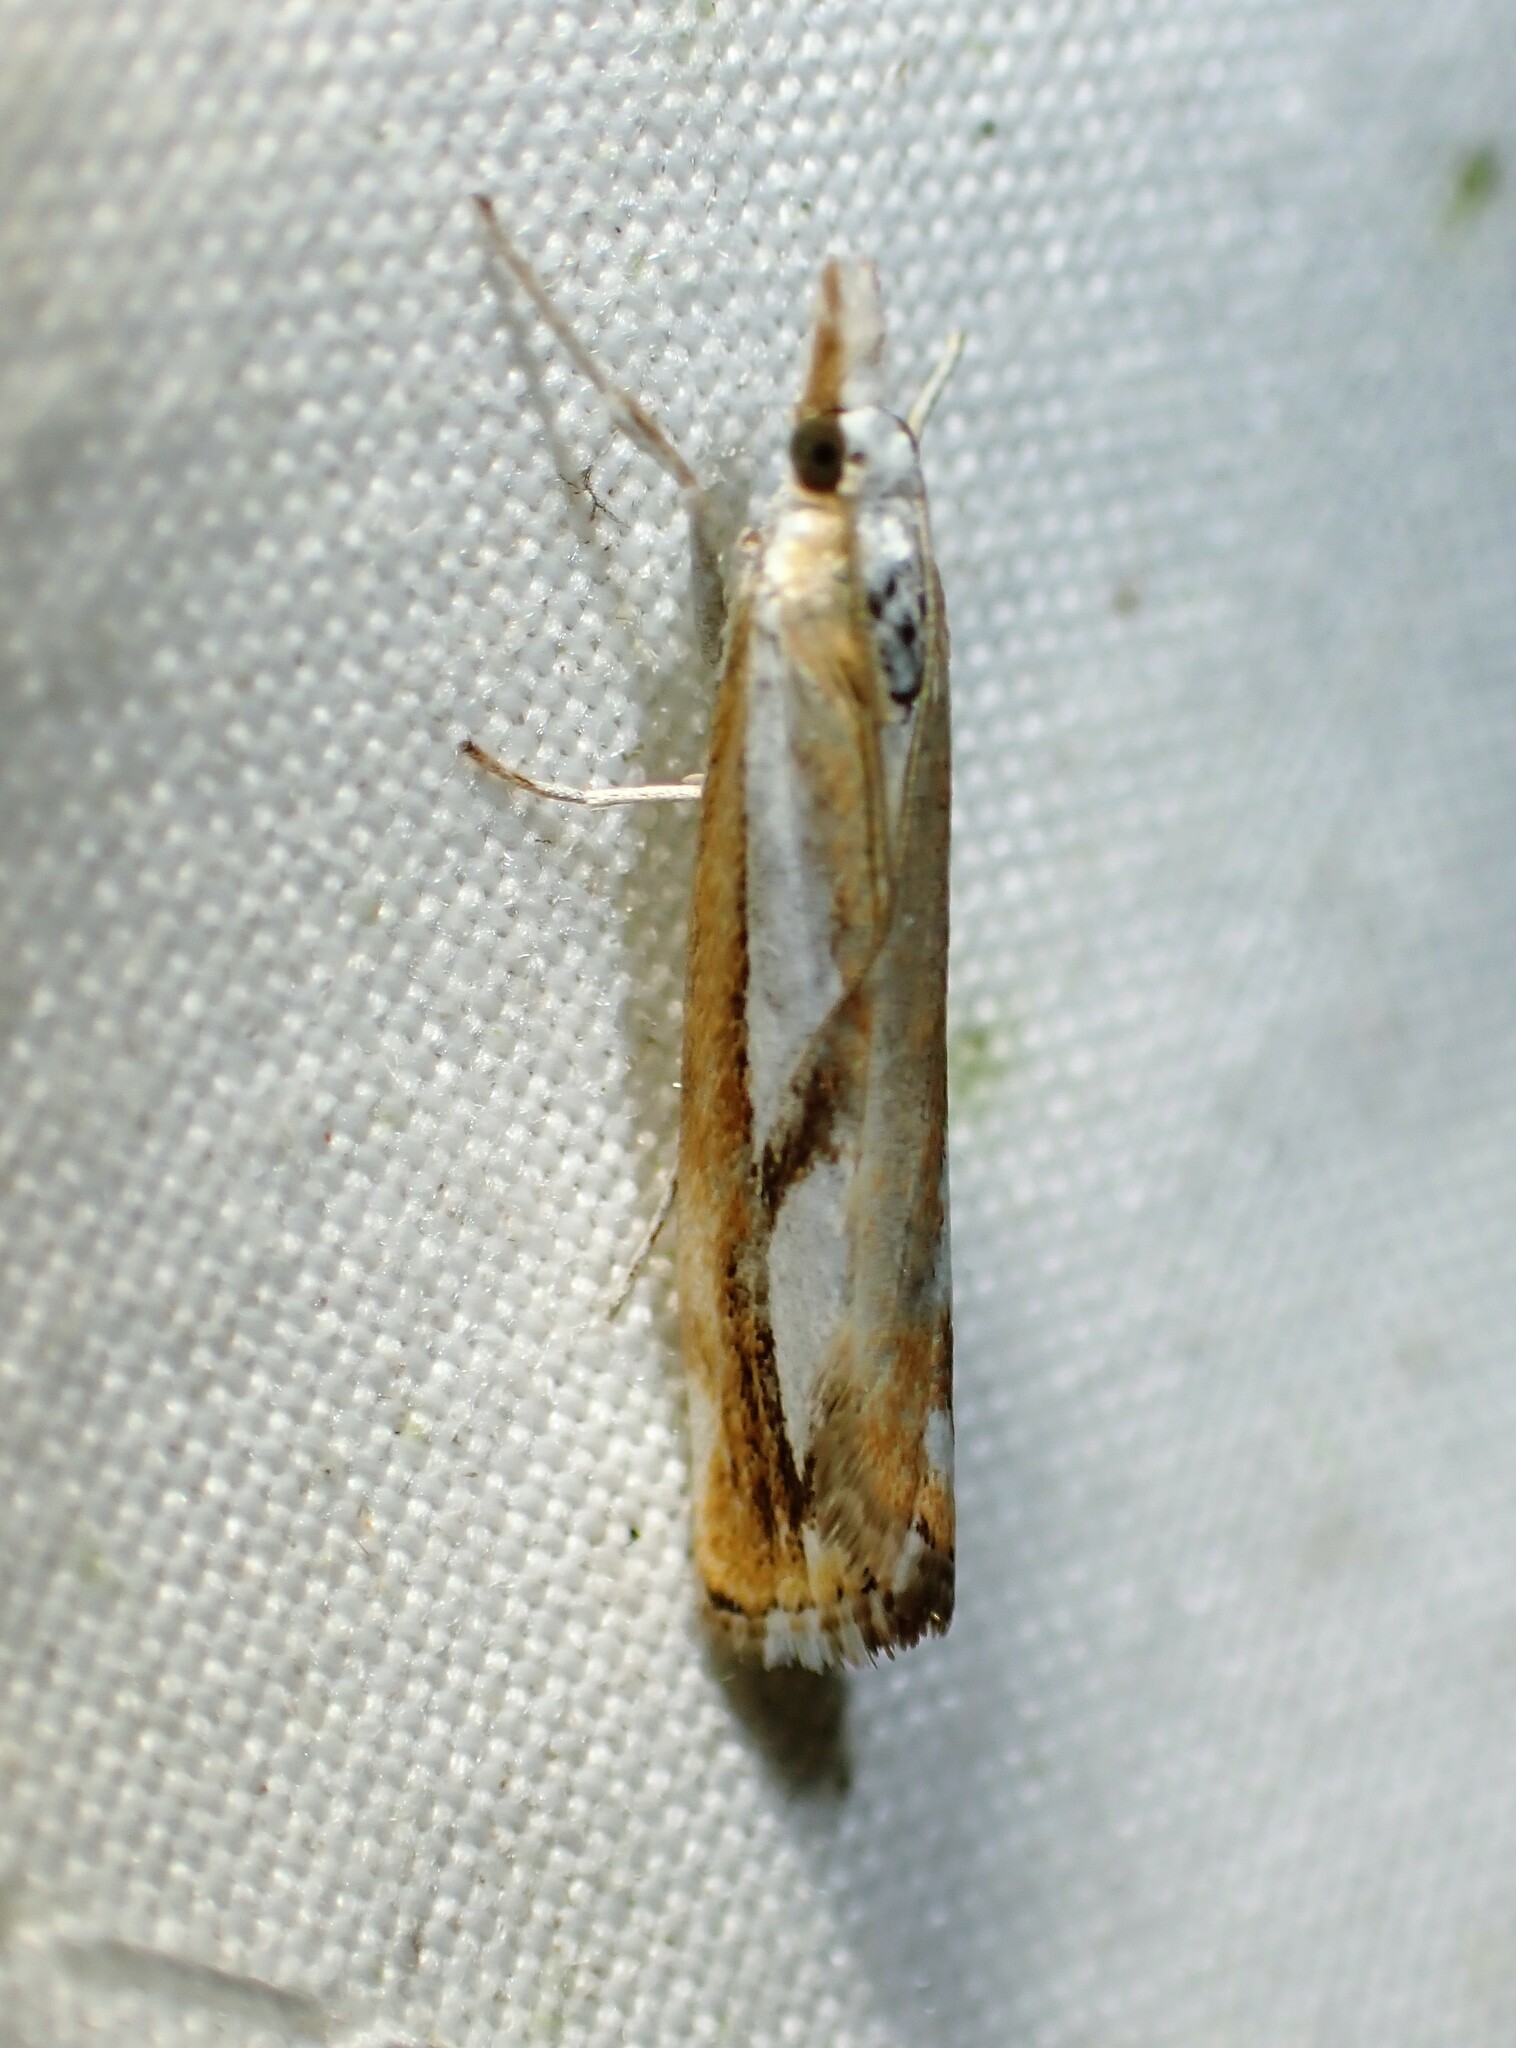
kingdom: Animalia
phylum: Arthropoda
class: Insecta
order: Lepidoptera
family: Crambidae
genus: Catoptria
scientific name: Catoptria latiradiellus
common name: Two-banded catoptria moth
